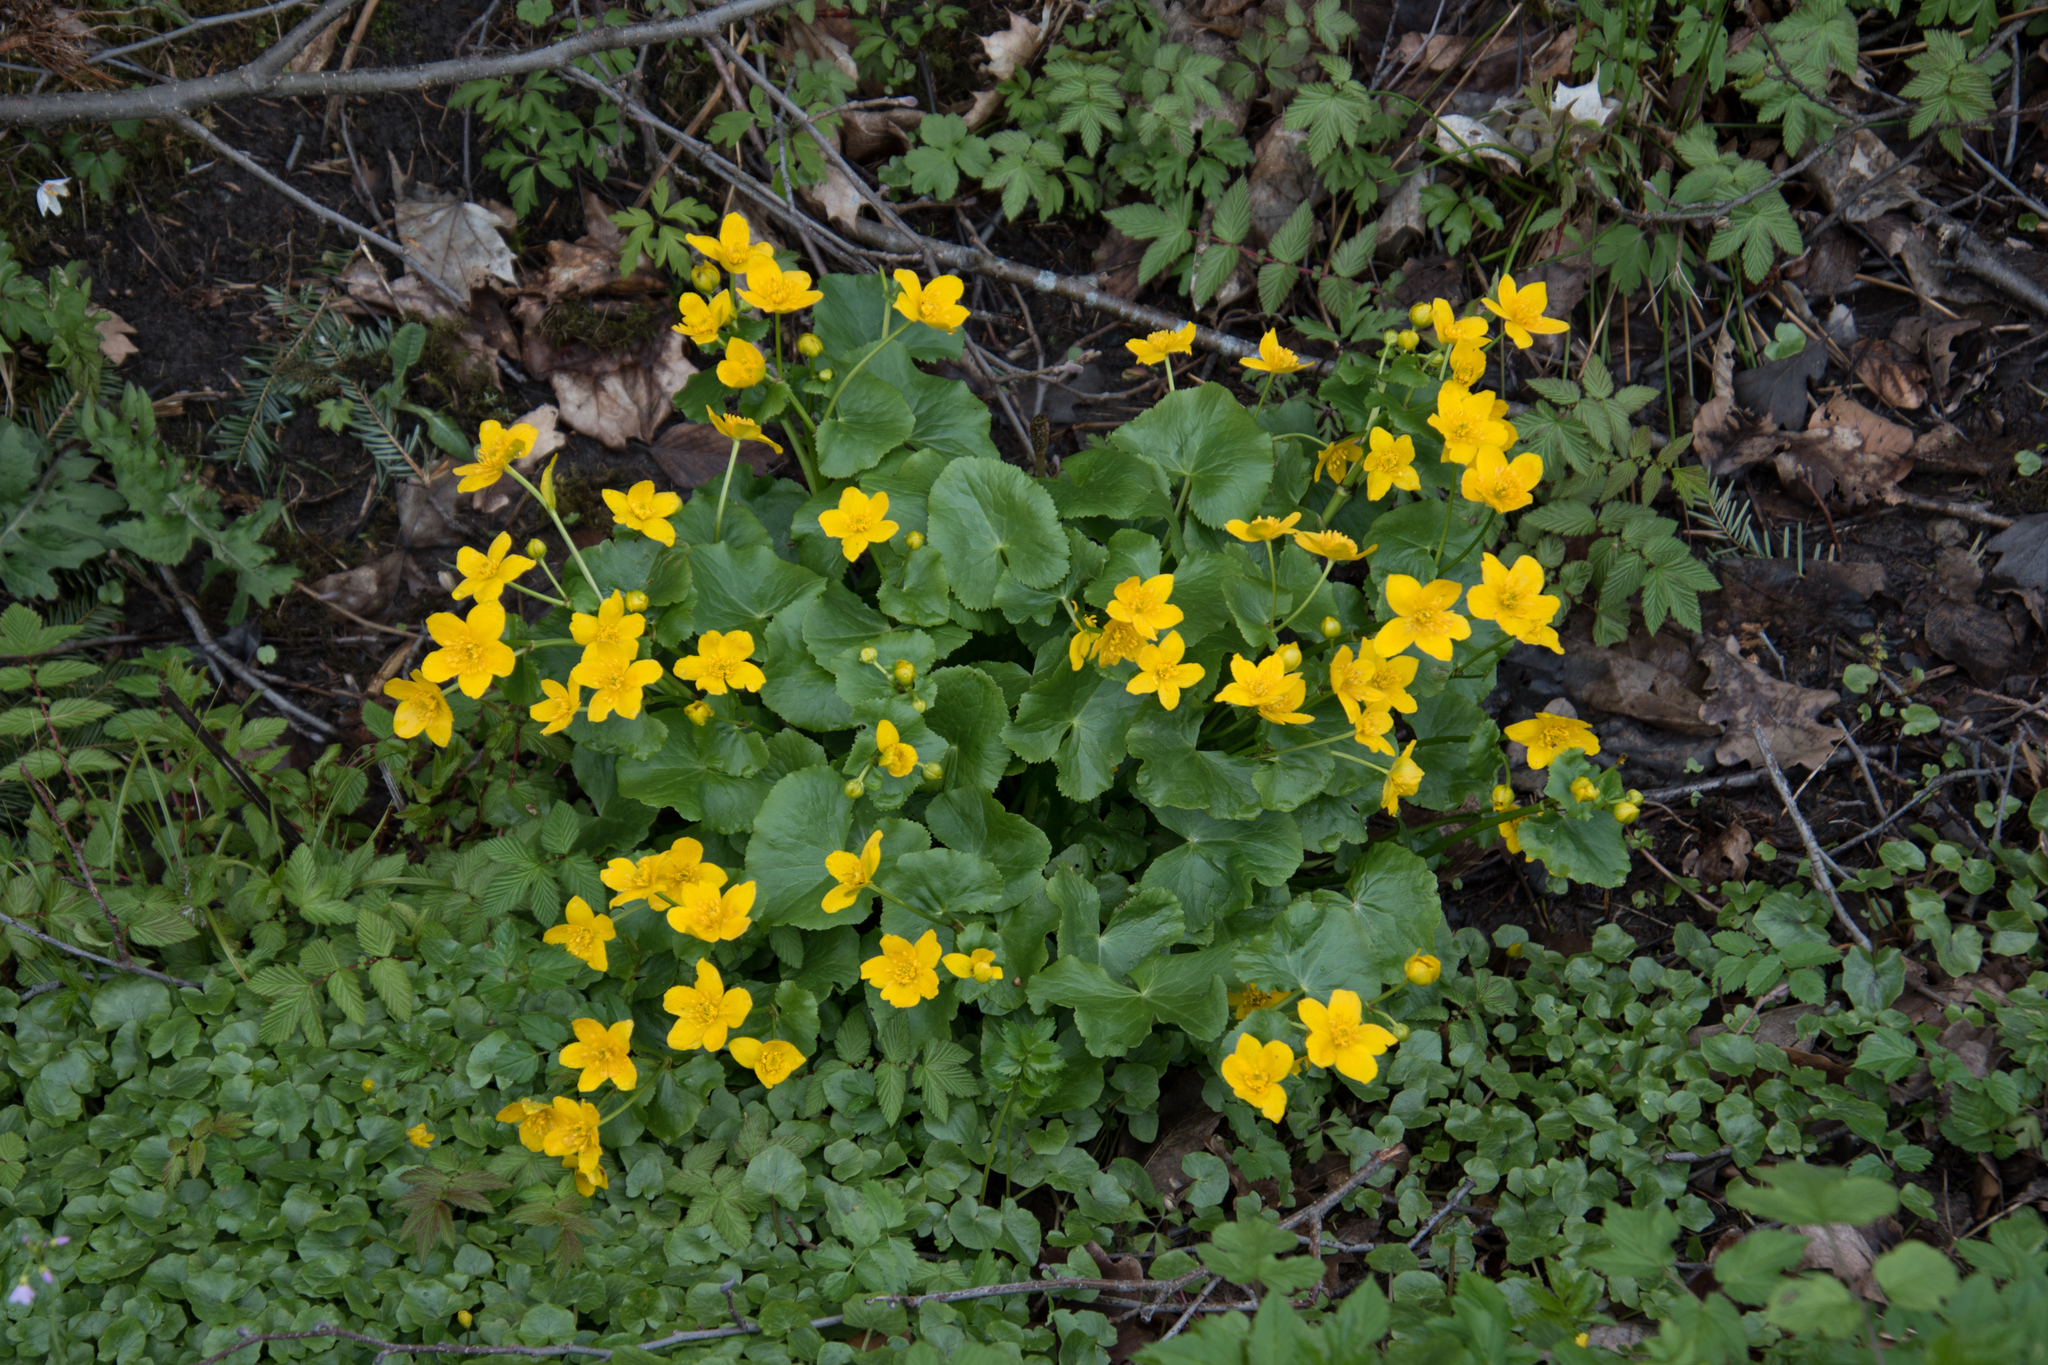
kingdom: Plantae
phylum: Tracheophyta
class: Magnoliopsida
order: Ranunculales
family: Ranunculaceae
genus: Caltha
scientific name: Caltha palustris
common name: Marsh marigold
